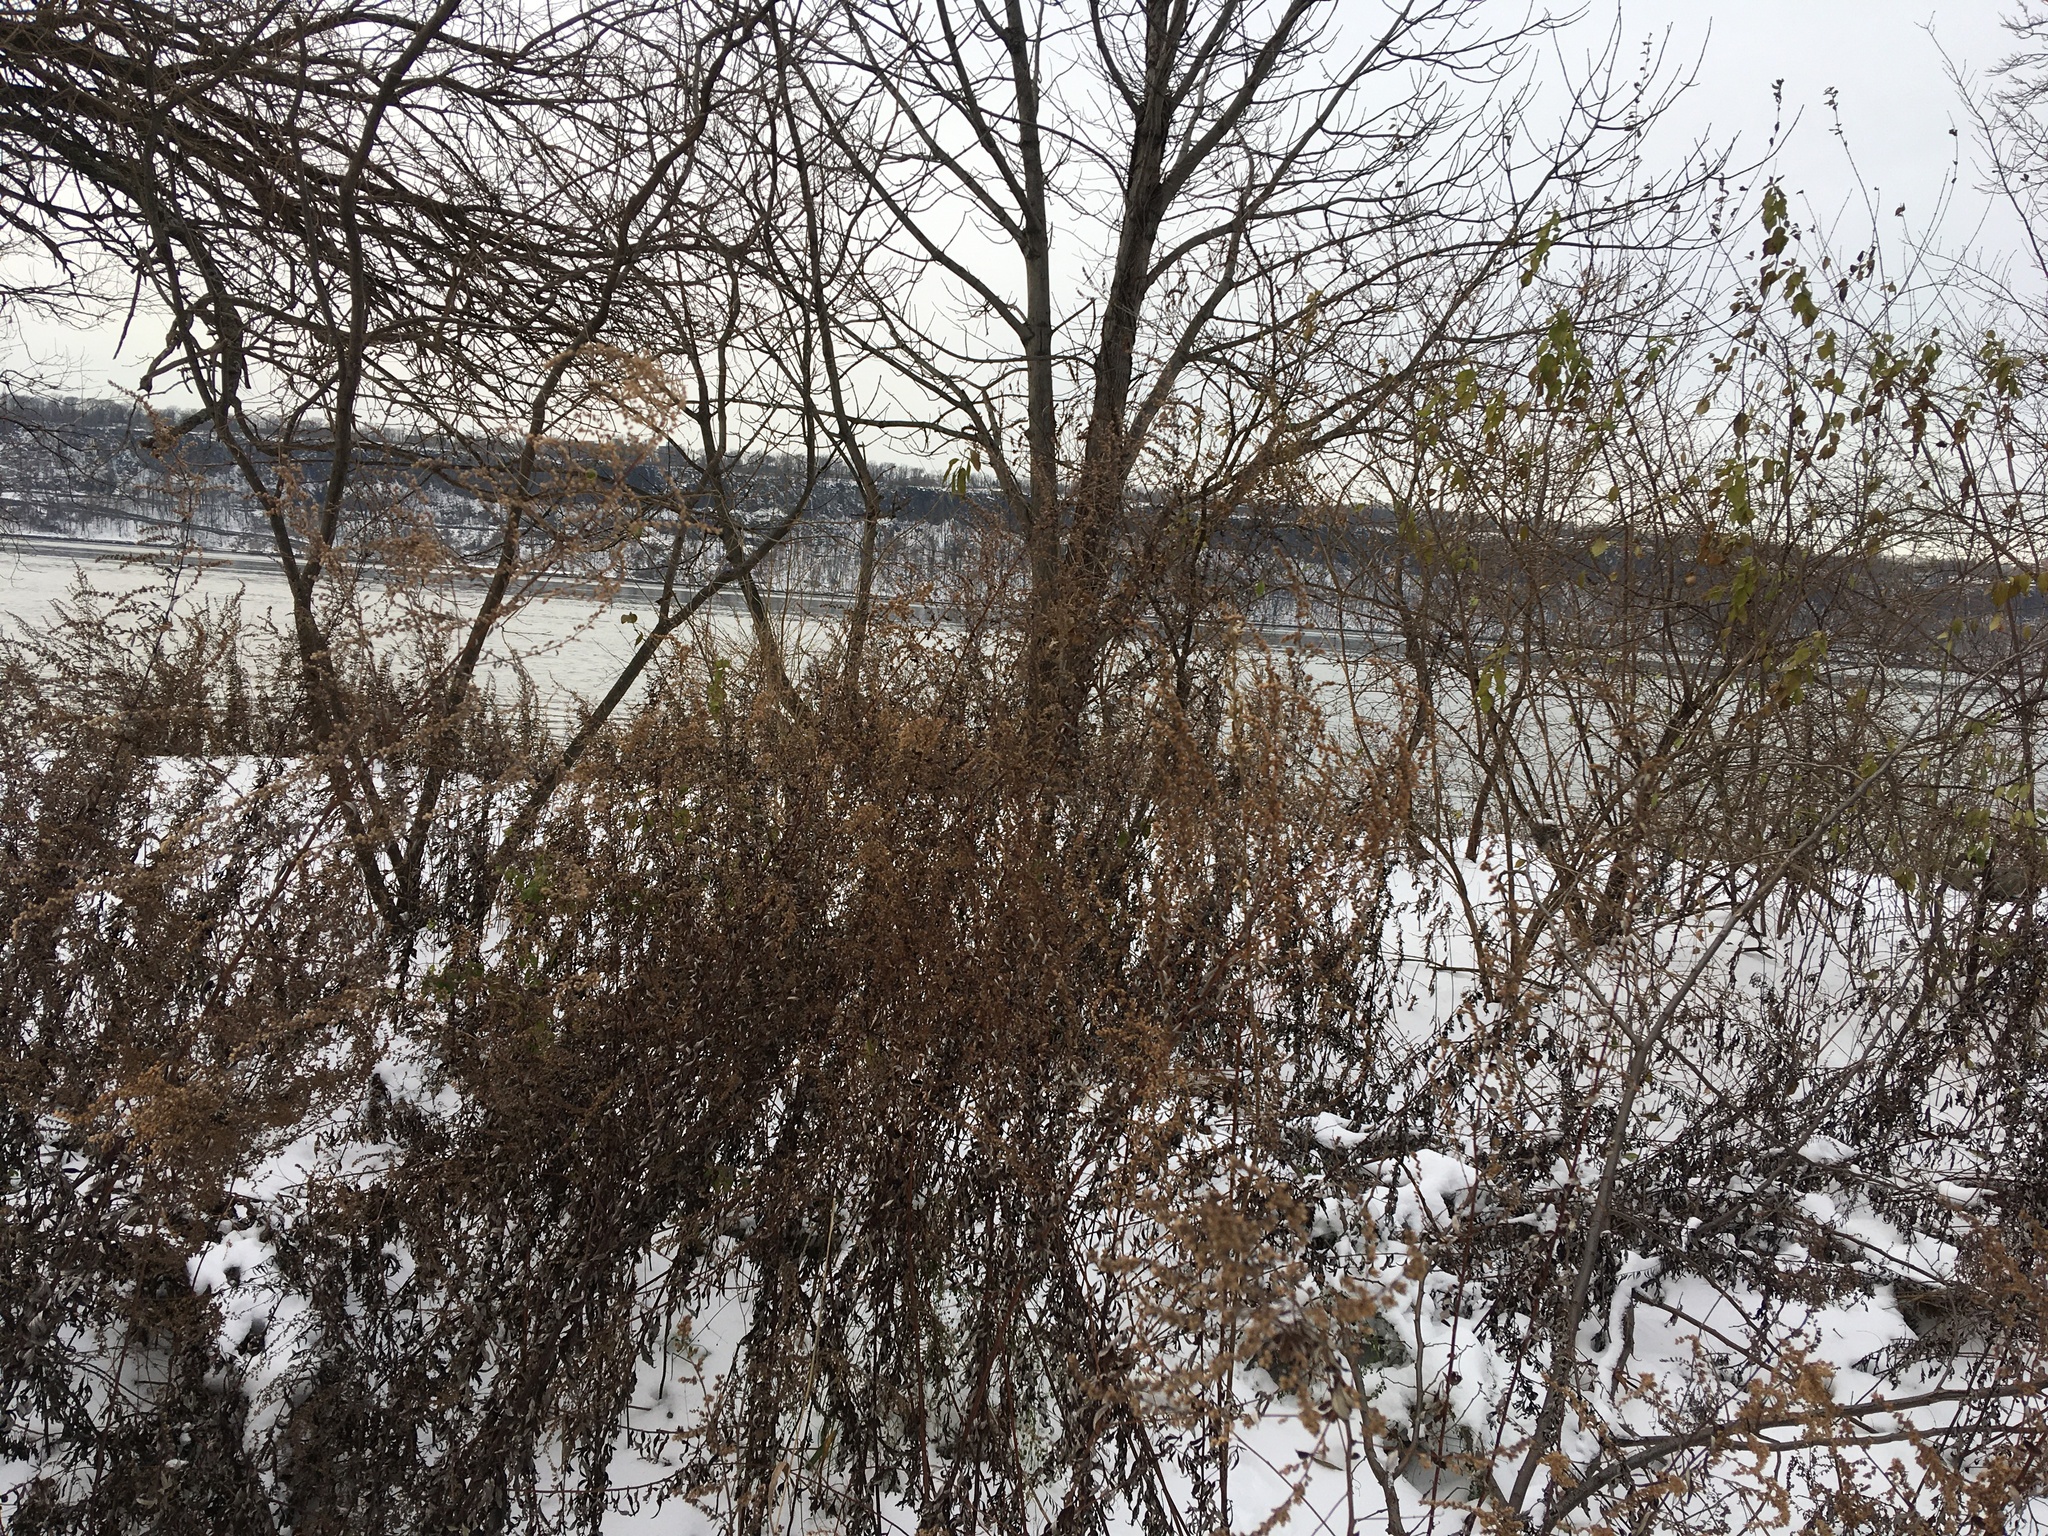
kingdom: Plantae
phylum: Tracheophyta
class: Magnoliopsida
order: Asterales
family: Asteraceae
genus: Artemisia
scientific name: Artemisia vulgaris
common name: Mugwort
